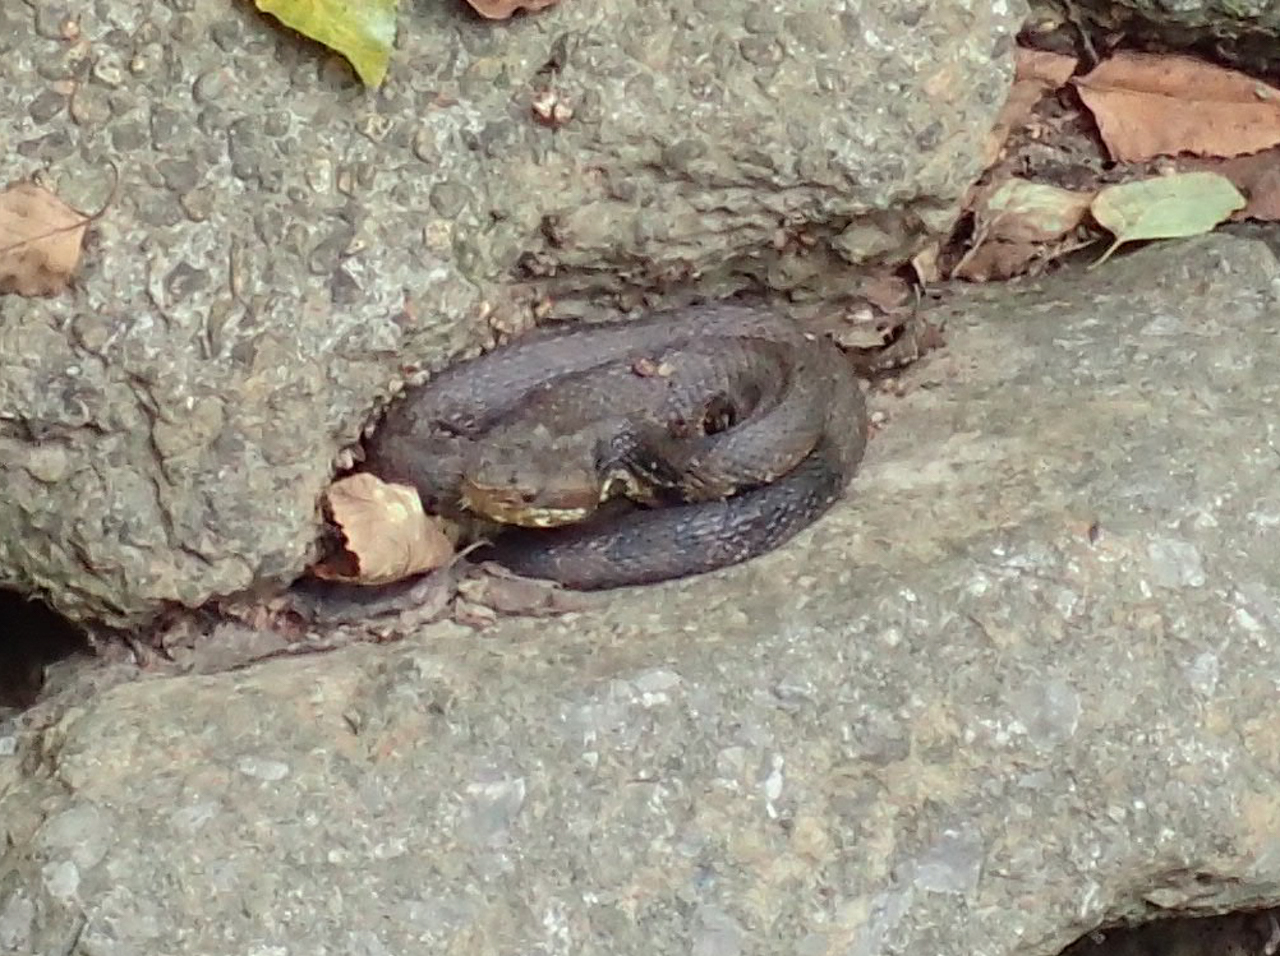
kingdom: Animalia
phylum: Chordata
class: Squamata
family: Viperidae
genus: Agkistrodon
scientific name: Agkistrodon piscivorus
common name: Cottonmouth
